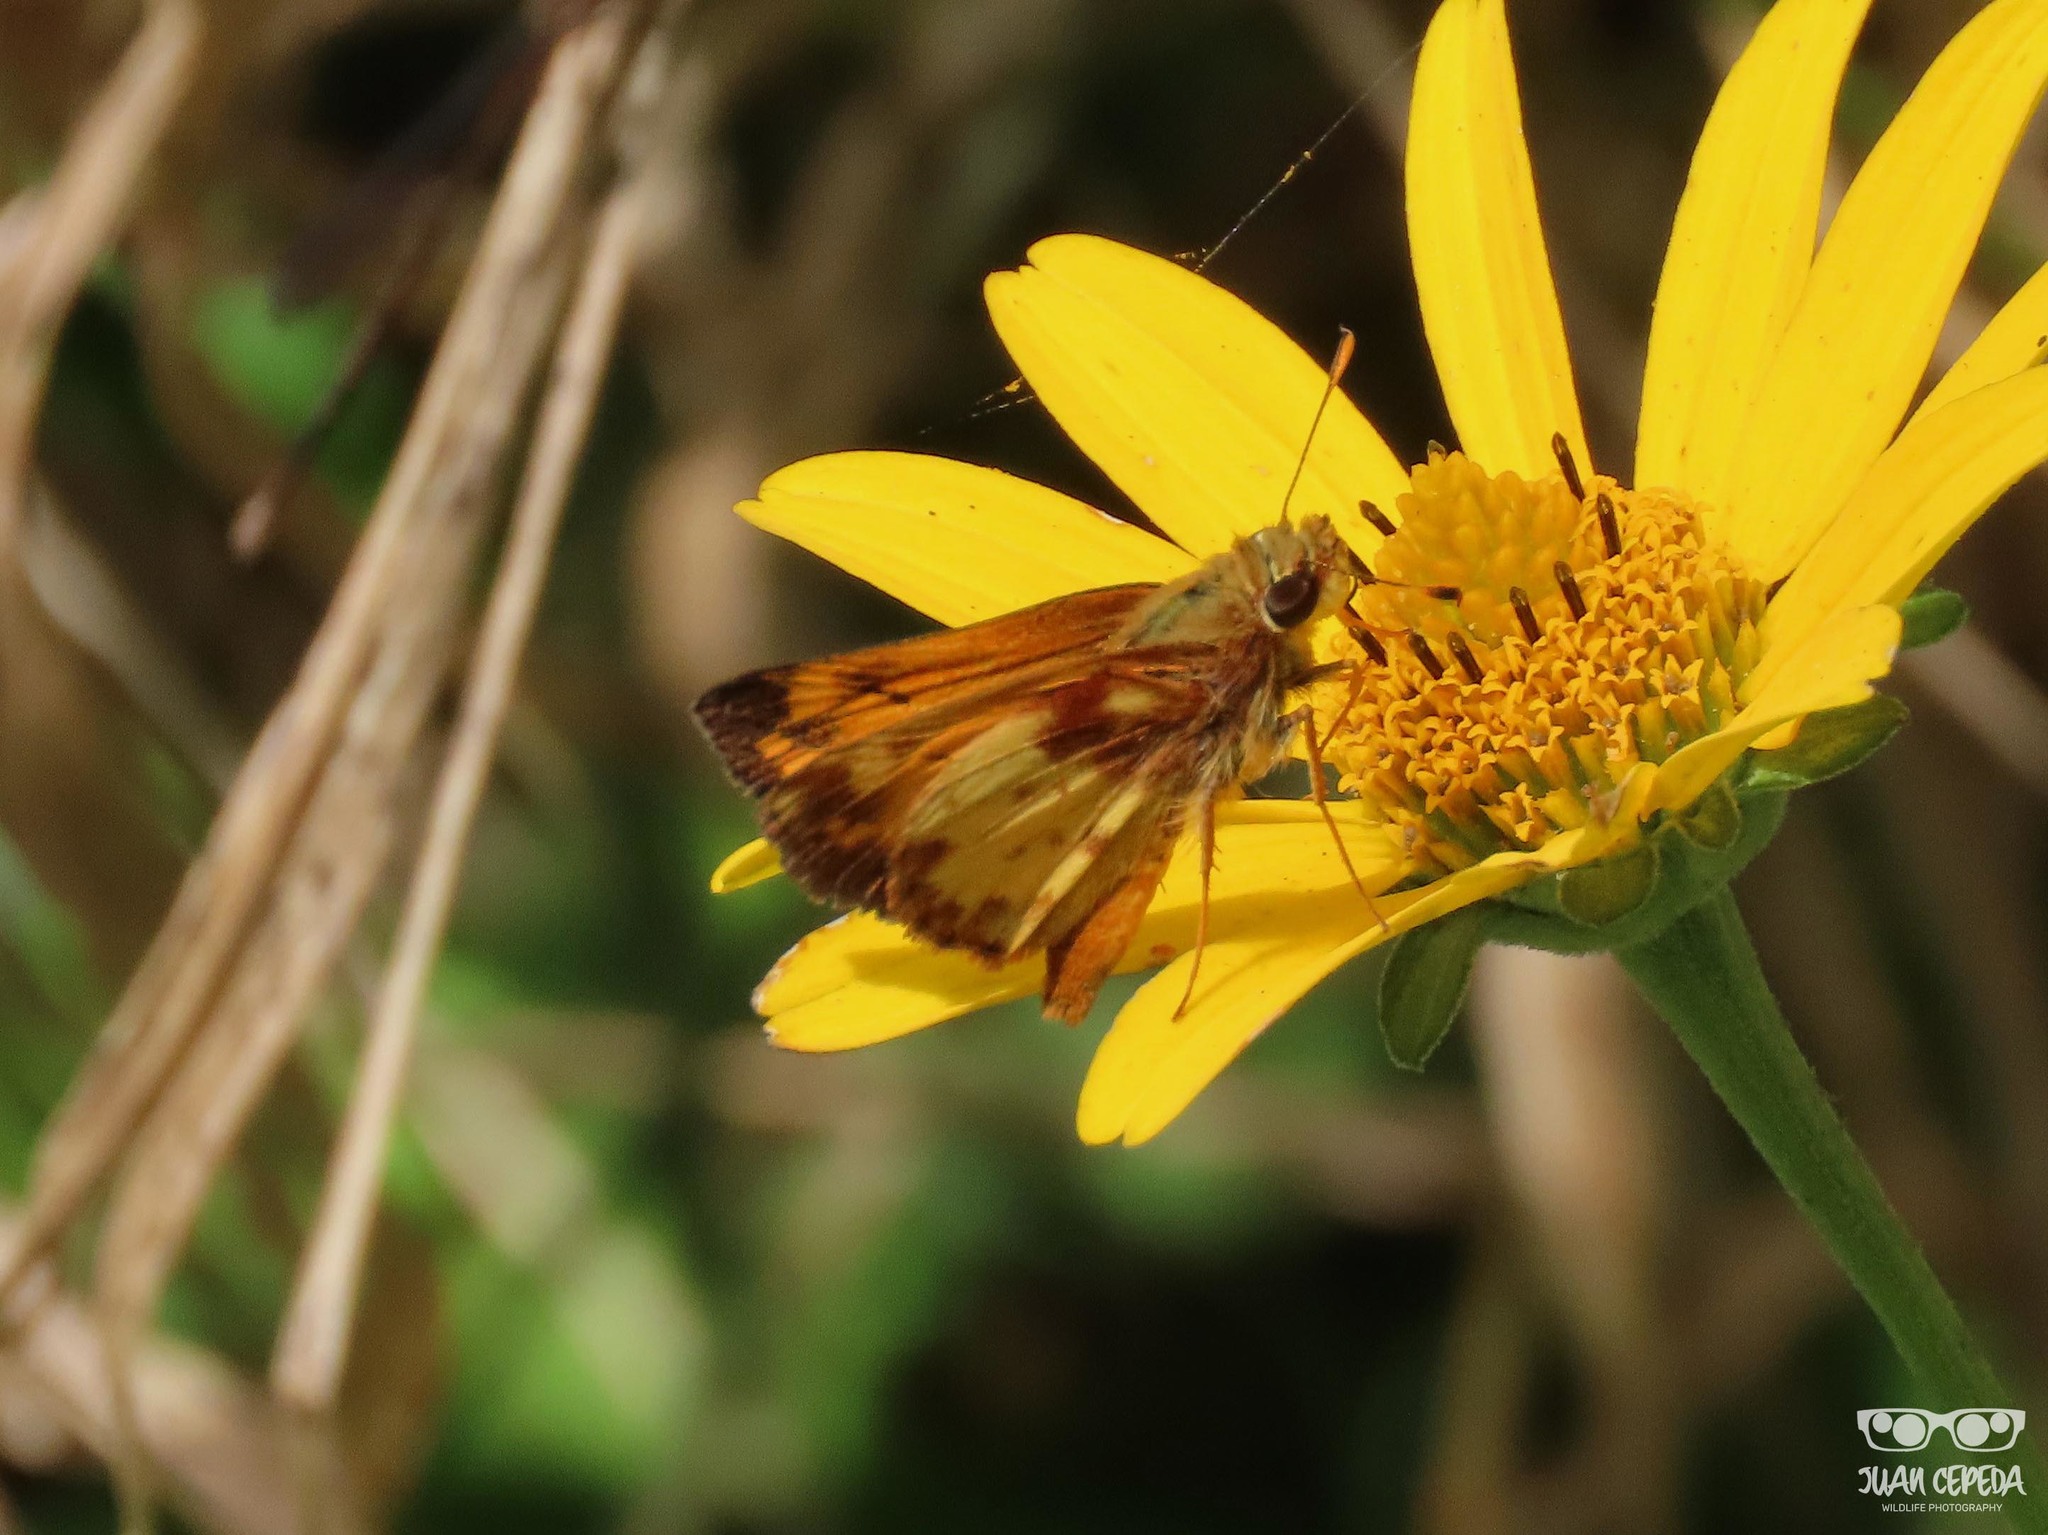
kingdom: Animalia
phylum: Arthropoda
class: Insecta
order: Lepidoptera
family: Hesperiidae
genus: Lon
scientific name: Lon zabulon
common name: Zabulon skipper
